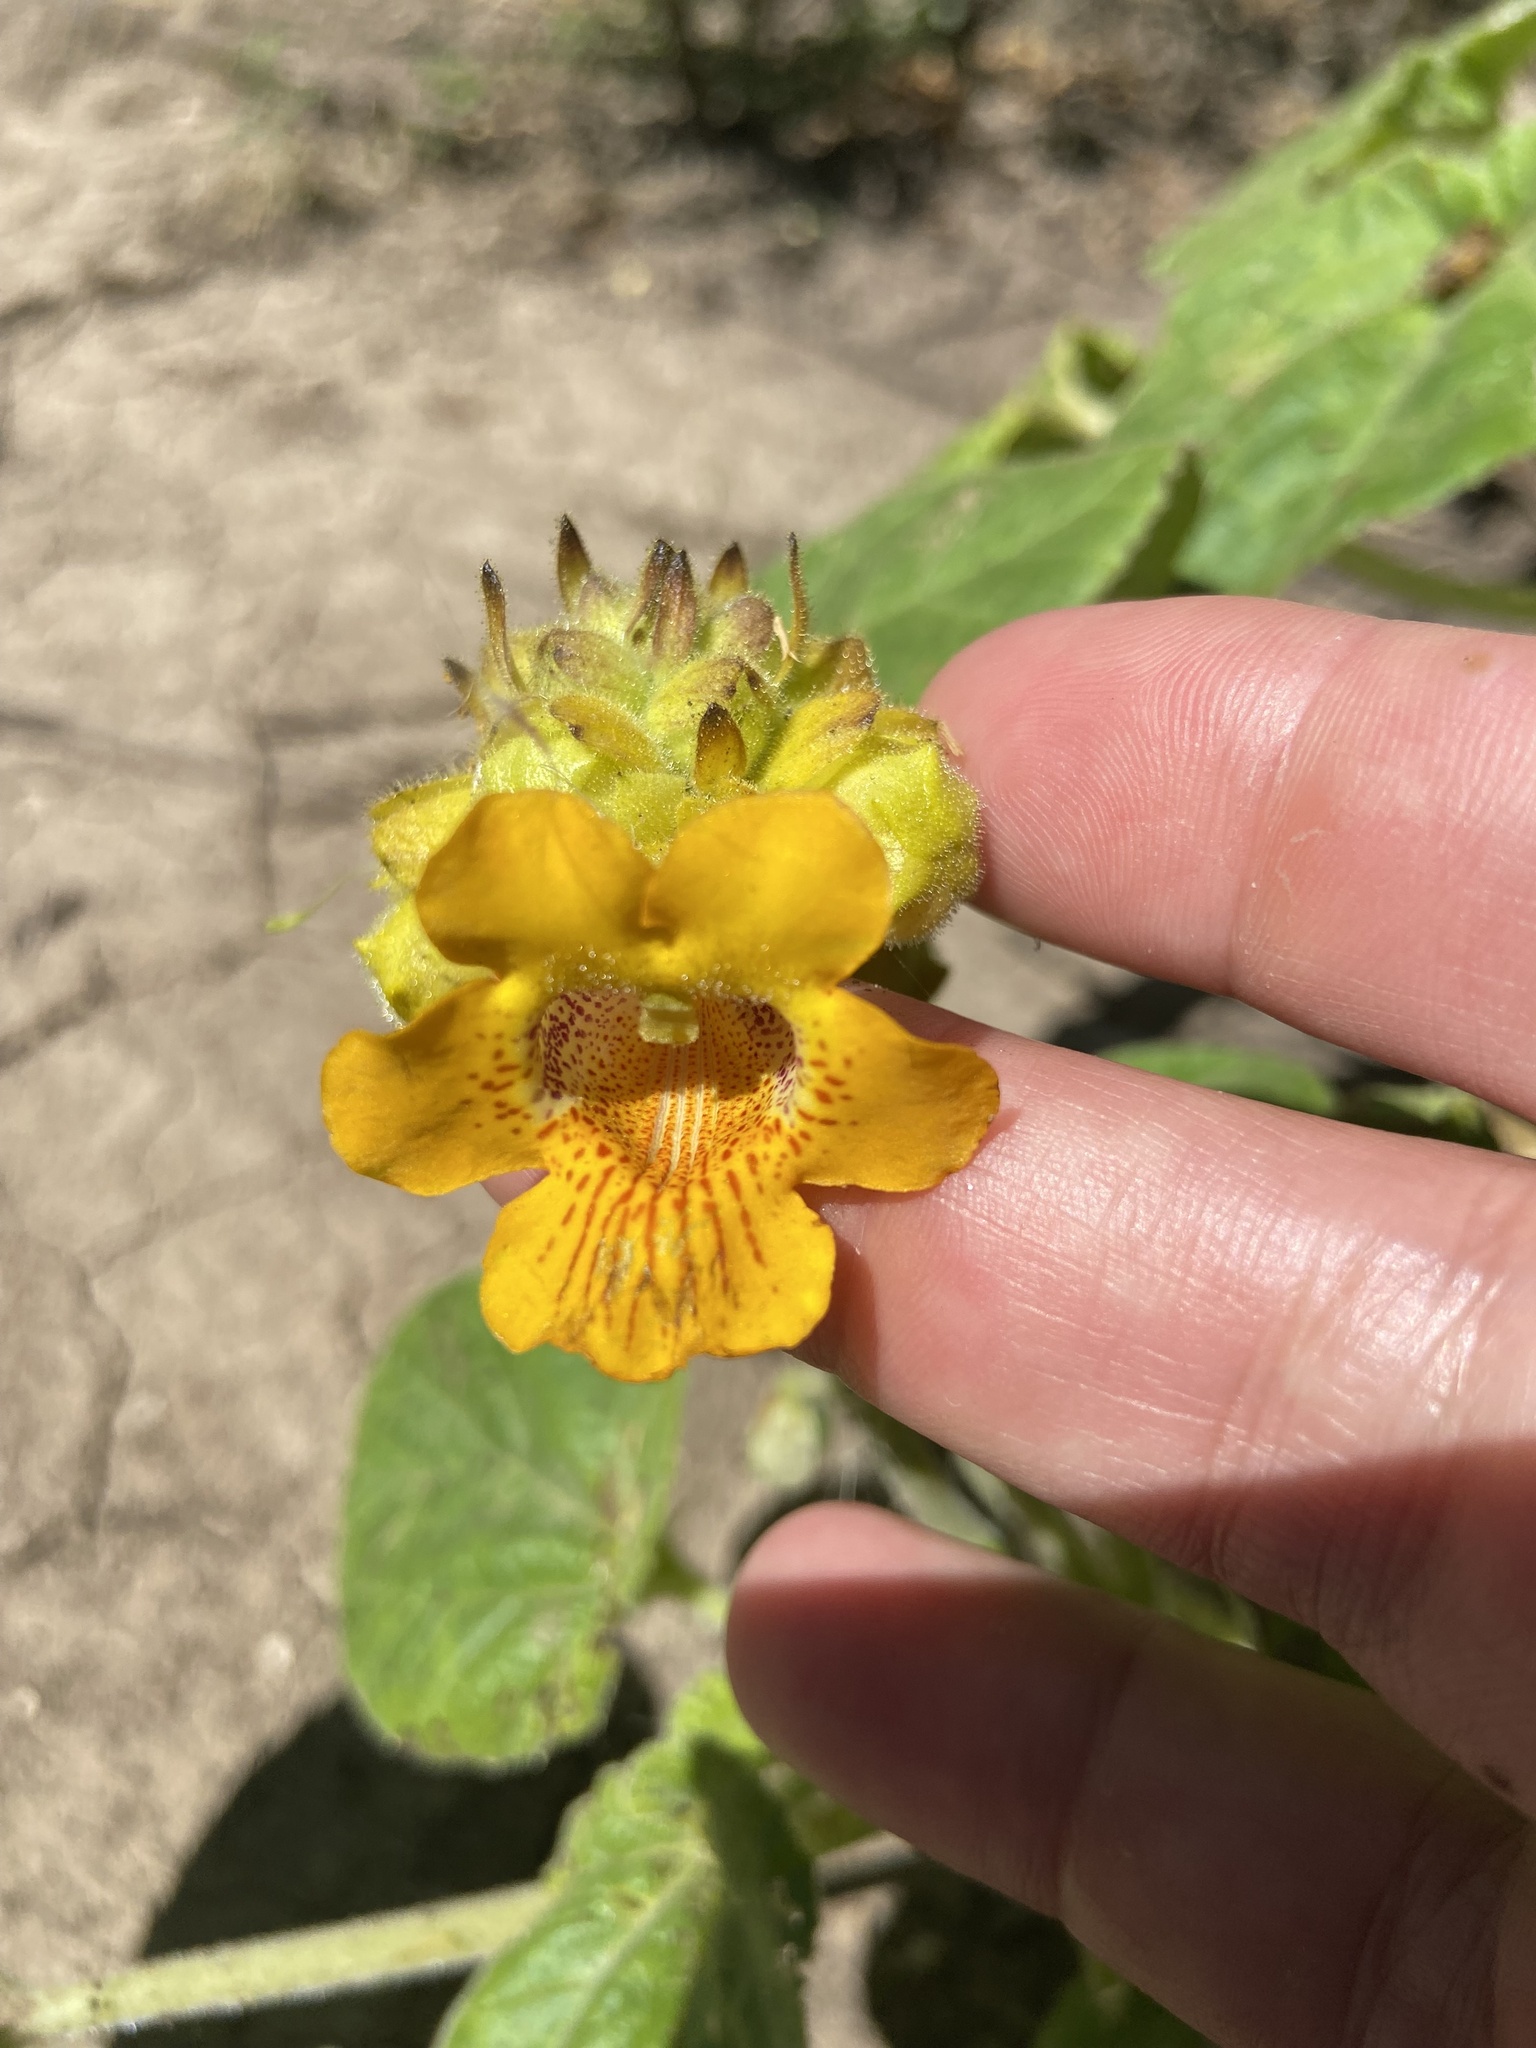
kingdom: Plantae
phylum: Tracheophyta
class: Magnoliopsida
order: Lamiales
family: Martyniaceae
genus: Ibicella
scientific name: Ibicella lutea
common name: Yellow unicorn-plant
